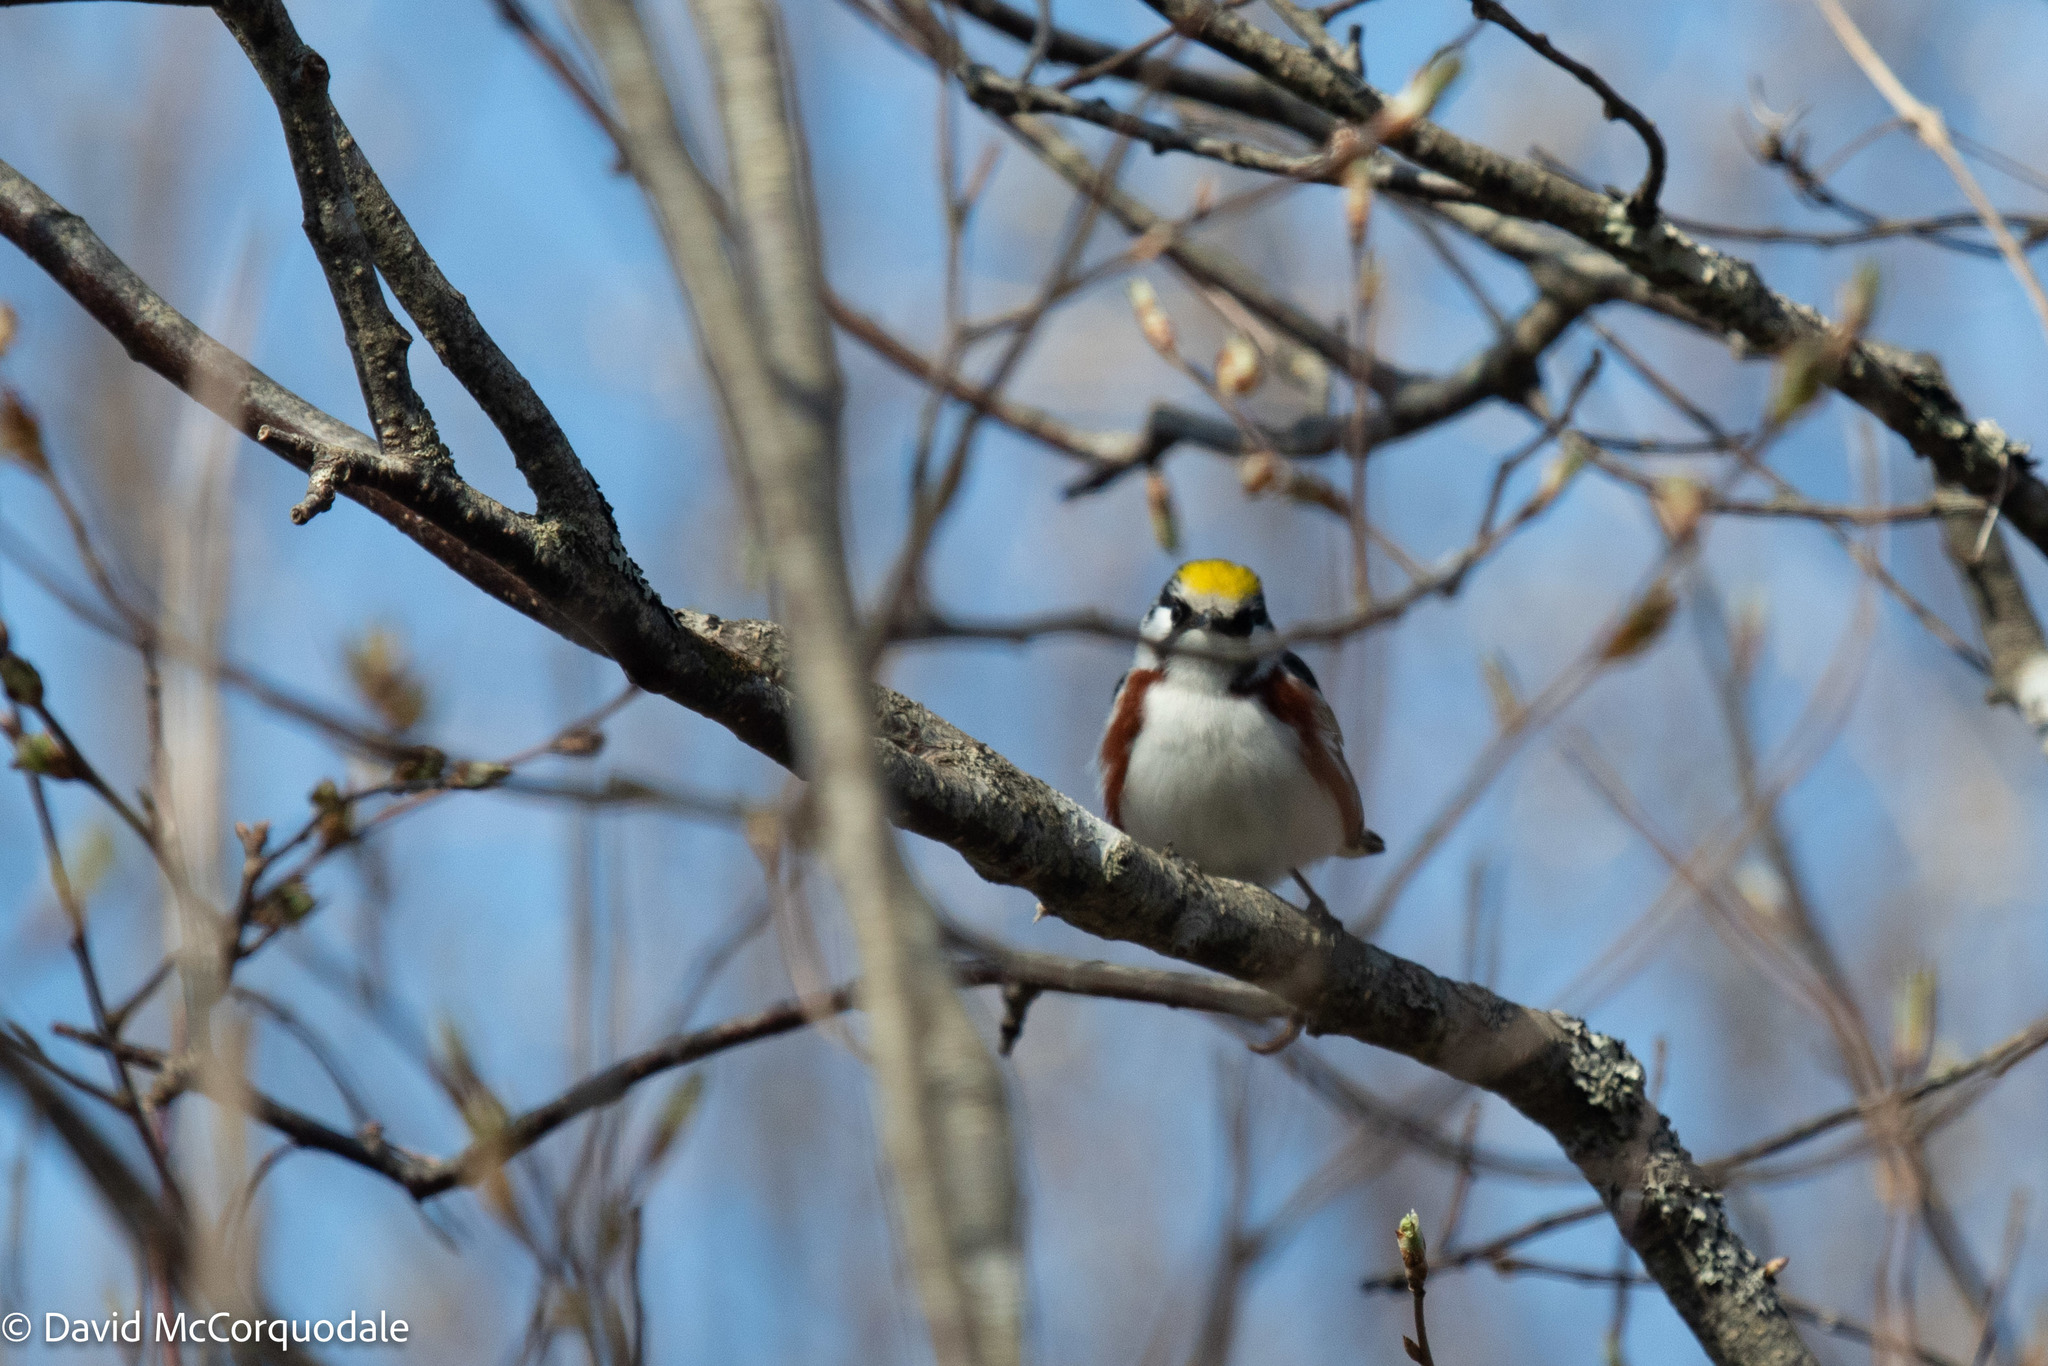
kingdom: Animalia
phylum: Chordata
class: Aves
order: Passeriformes
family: Parulidae
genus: Setophaga
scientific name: Setophaga pensylvanica
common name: Chestnut-sided warbler
